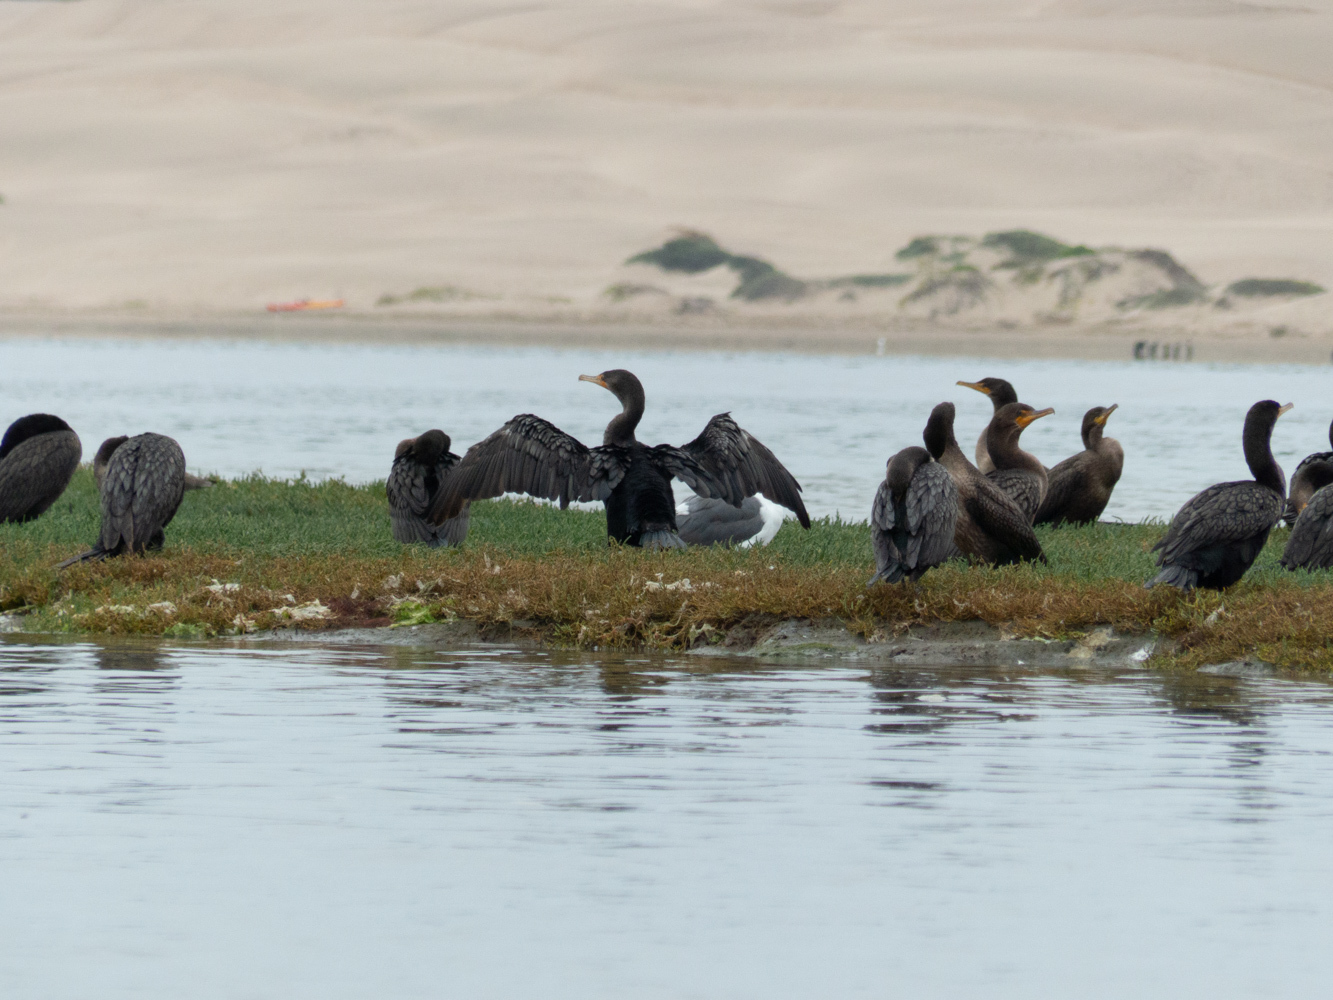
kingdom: Animalia
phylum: Chordata
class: Aves
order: Suliformes
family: Phalacrocoracidae
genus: Phalacrocorax
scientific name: Phalacrocorax auritus
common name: Double-crested cormorant
